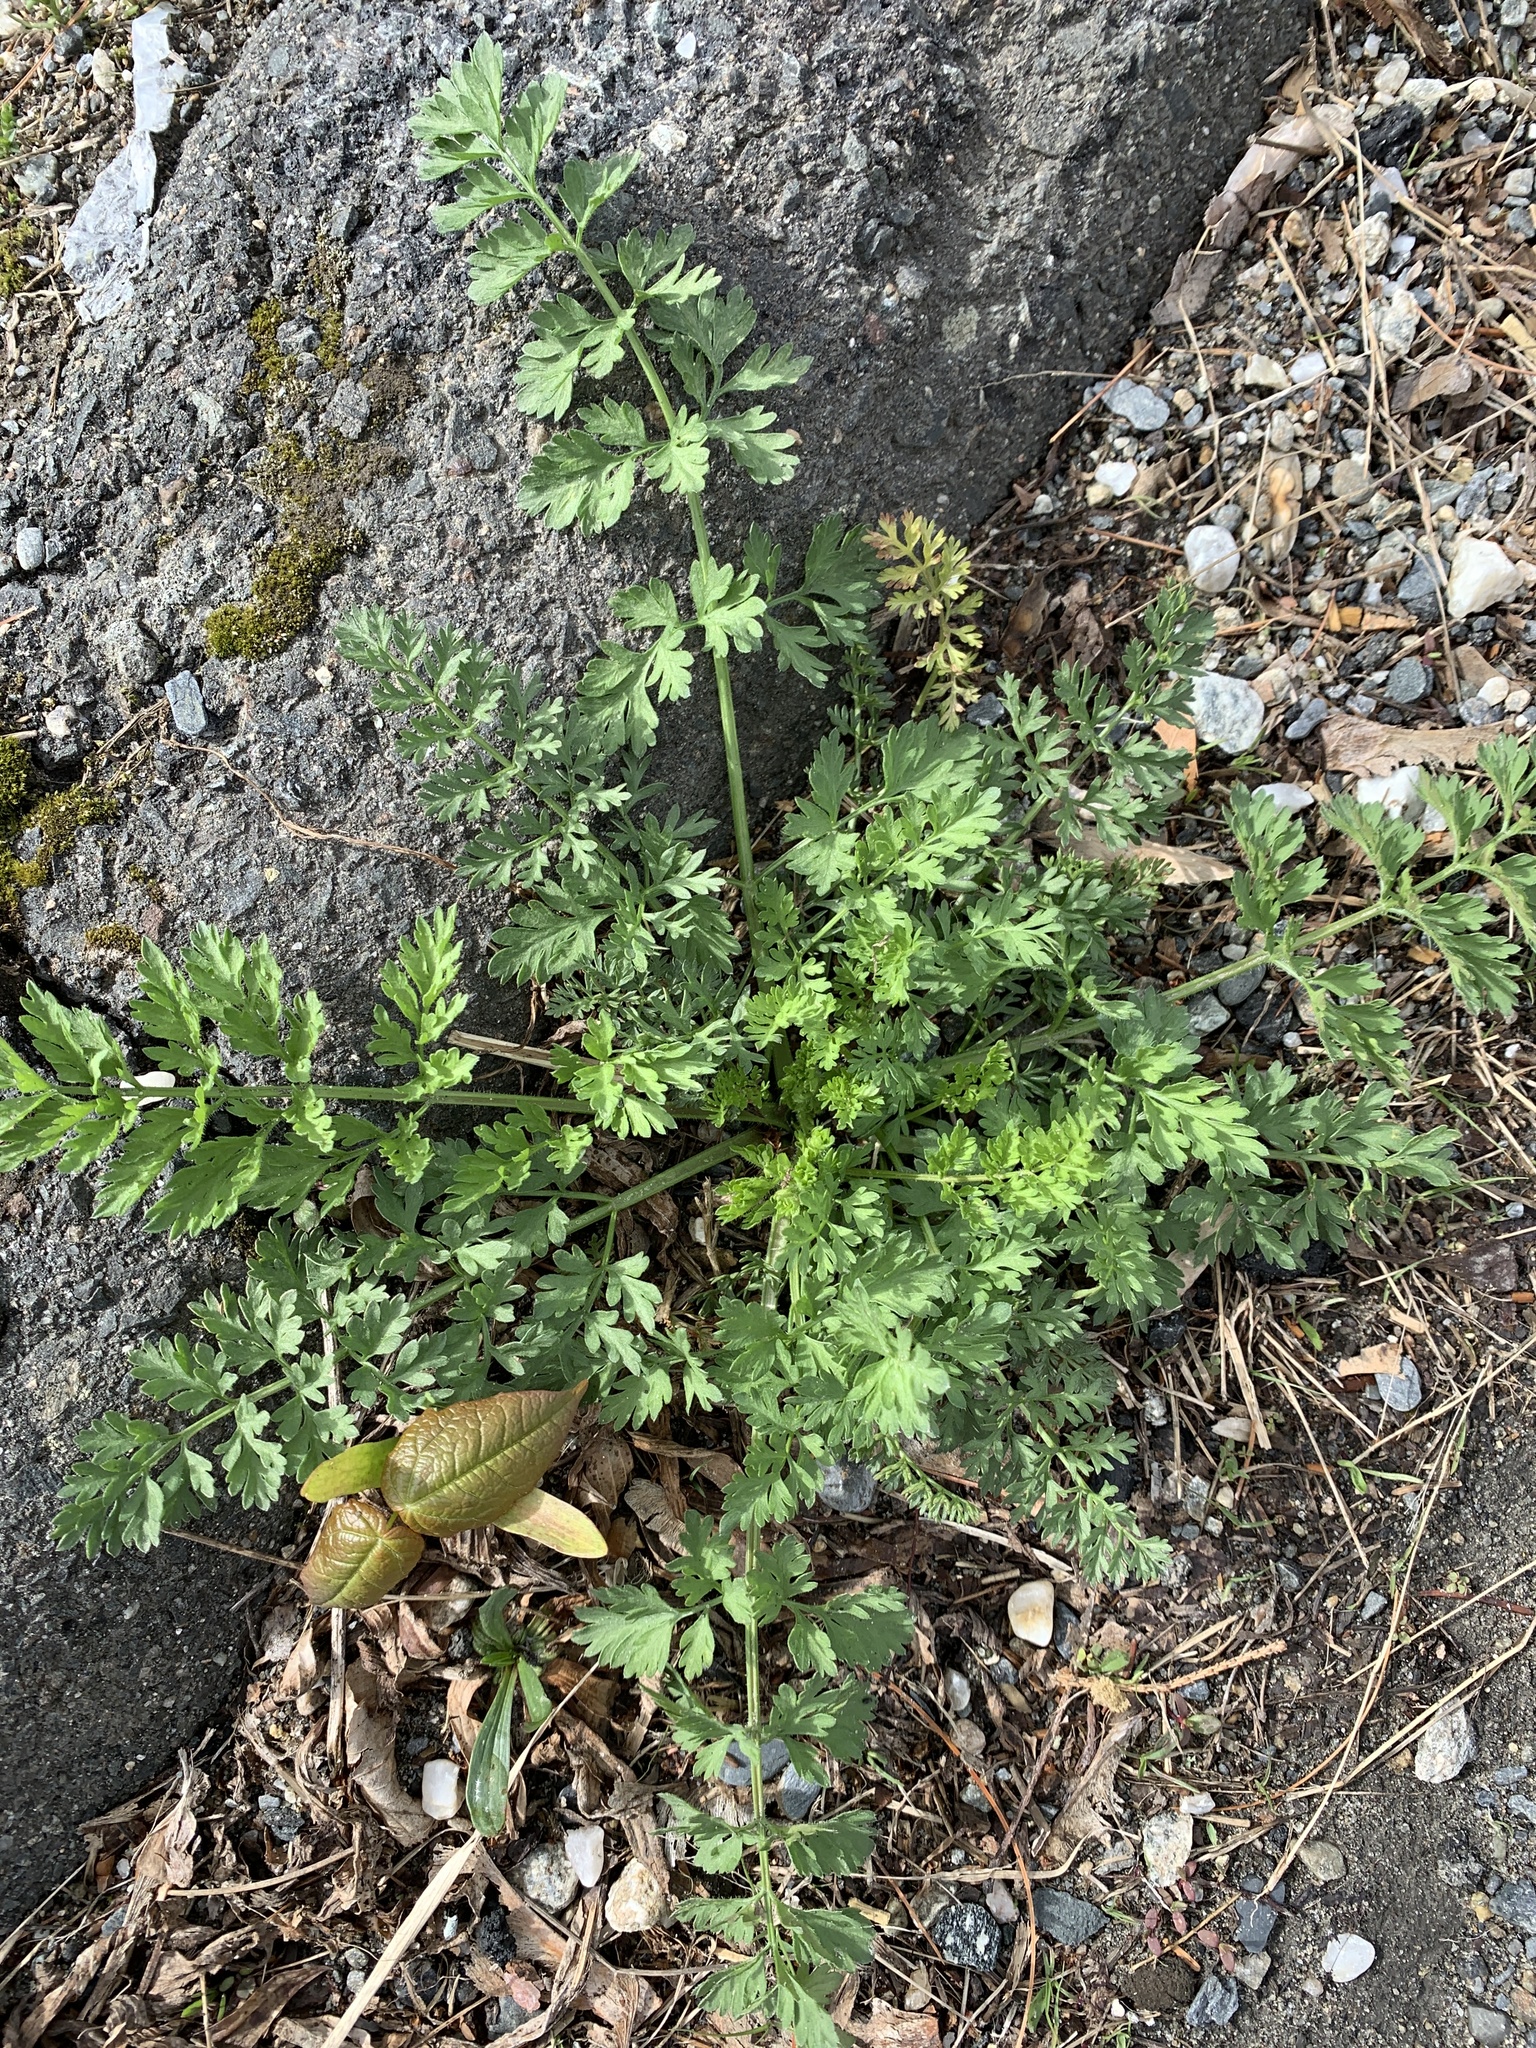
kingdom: Plantae
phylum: Tracheophyta
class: Magnoliopsida
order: Apiales
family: Apiaceae
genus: Daucus
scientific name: Daucus carota
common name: Wild carrot
